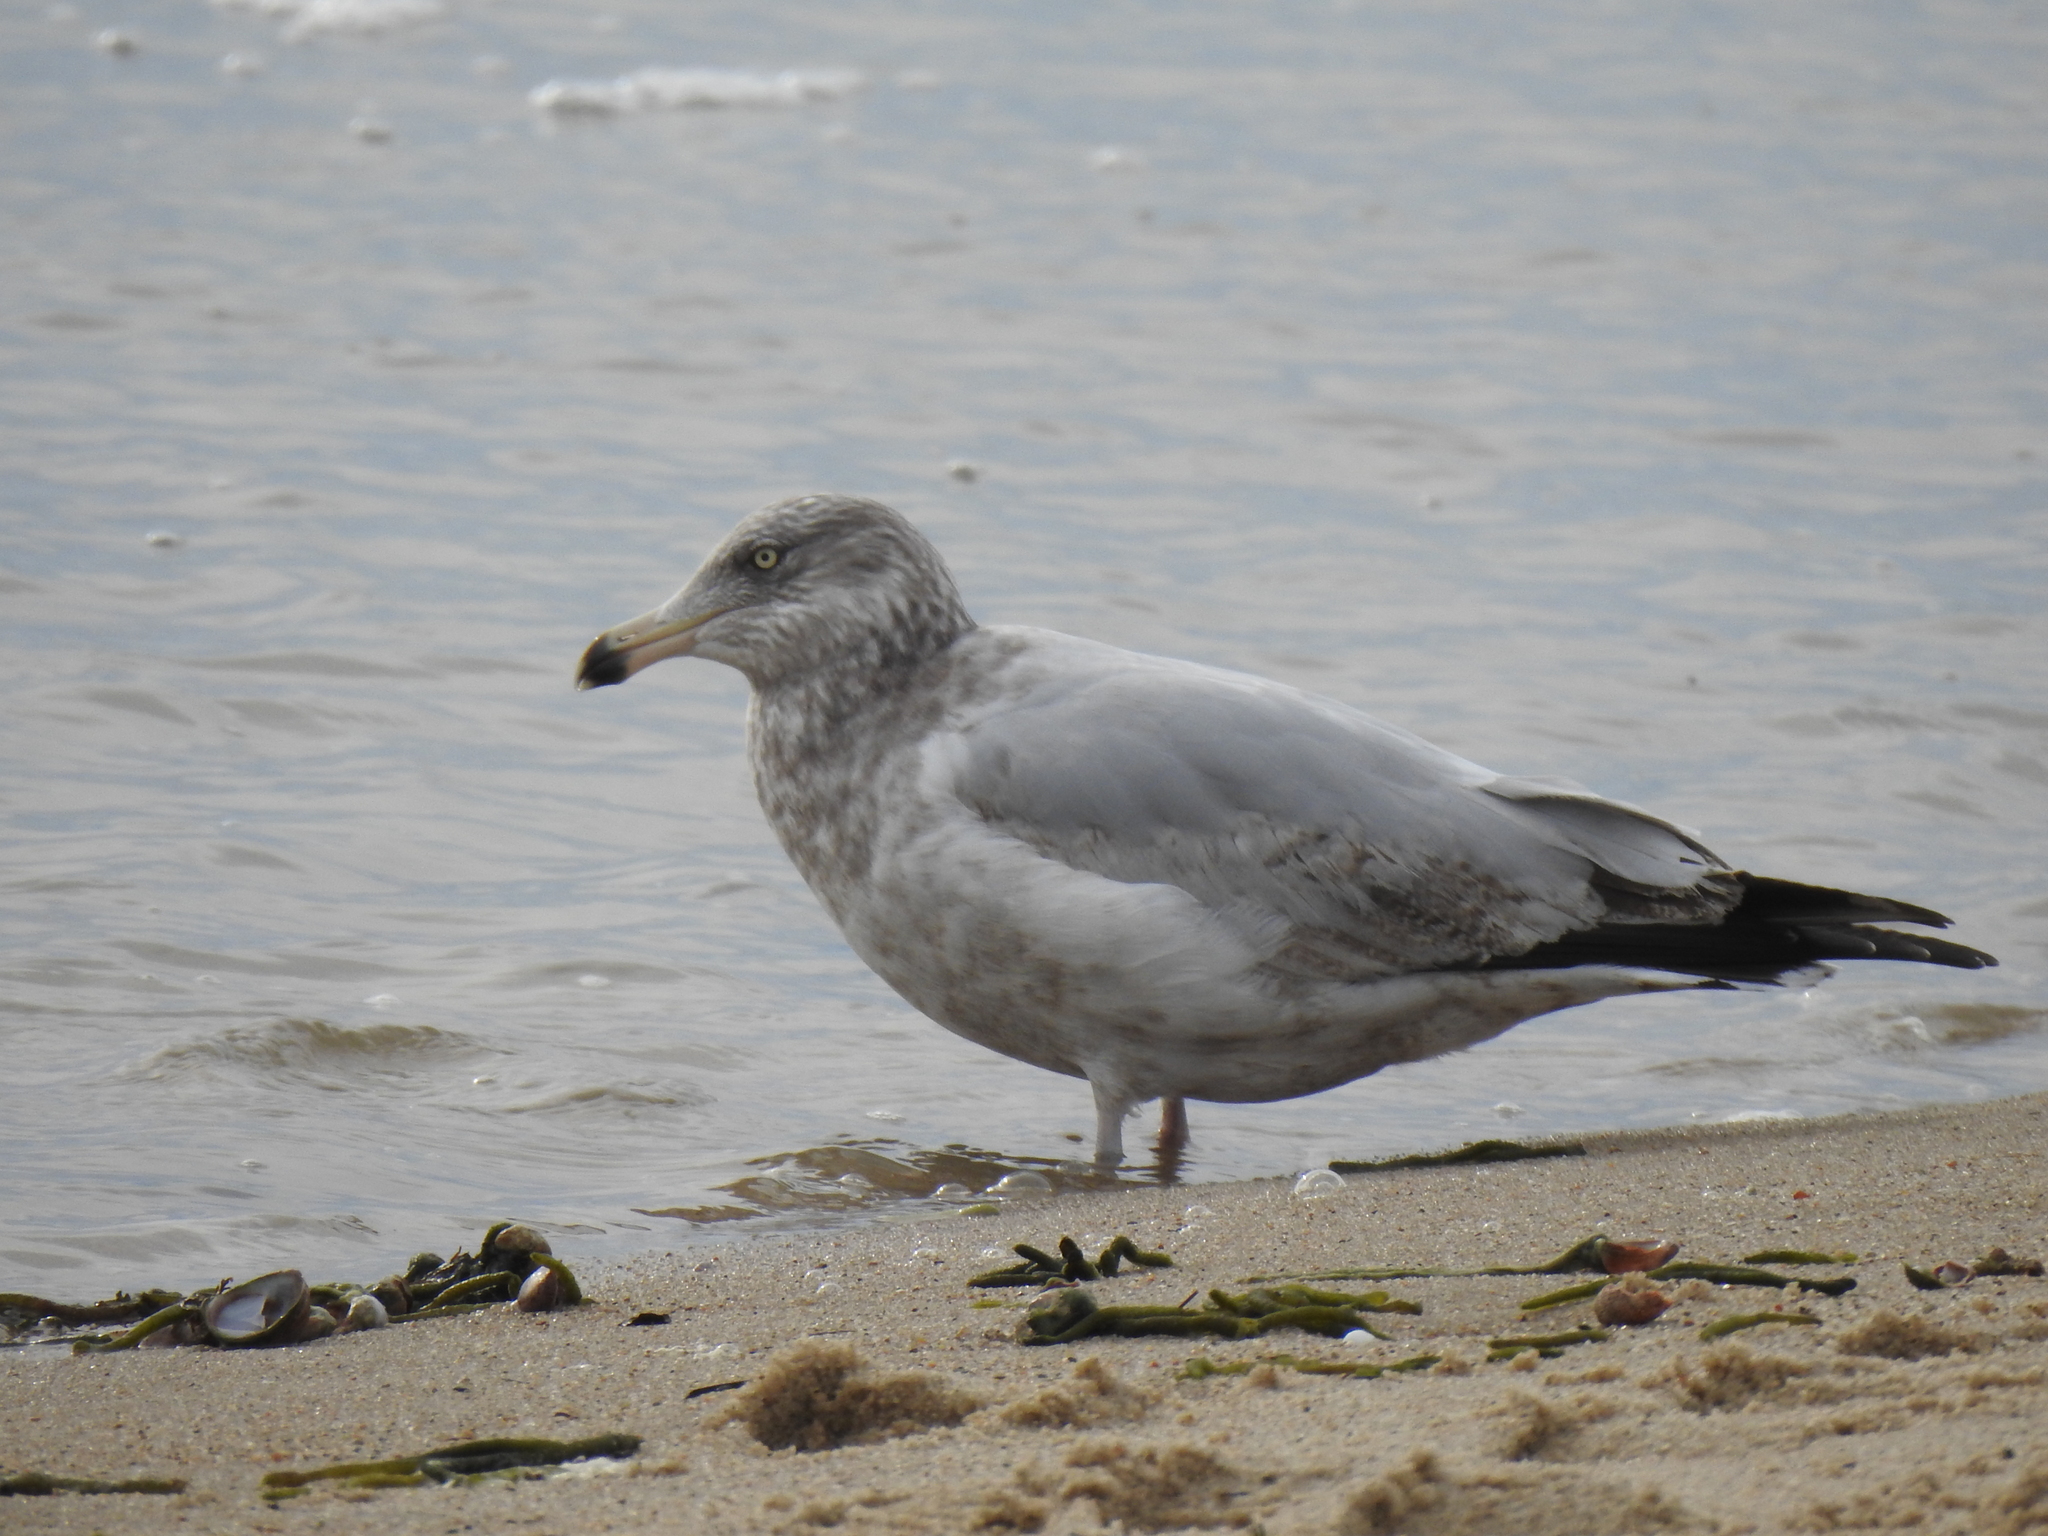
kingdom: Animalia
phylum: Chordata
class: Aves
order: Charadriiformes
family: Laridae
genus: Larus
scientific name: Larus argentatus
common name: Herring gull
